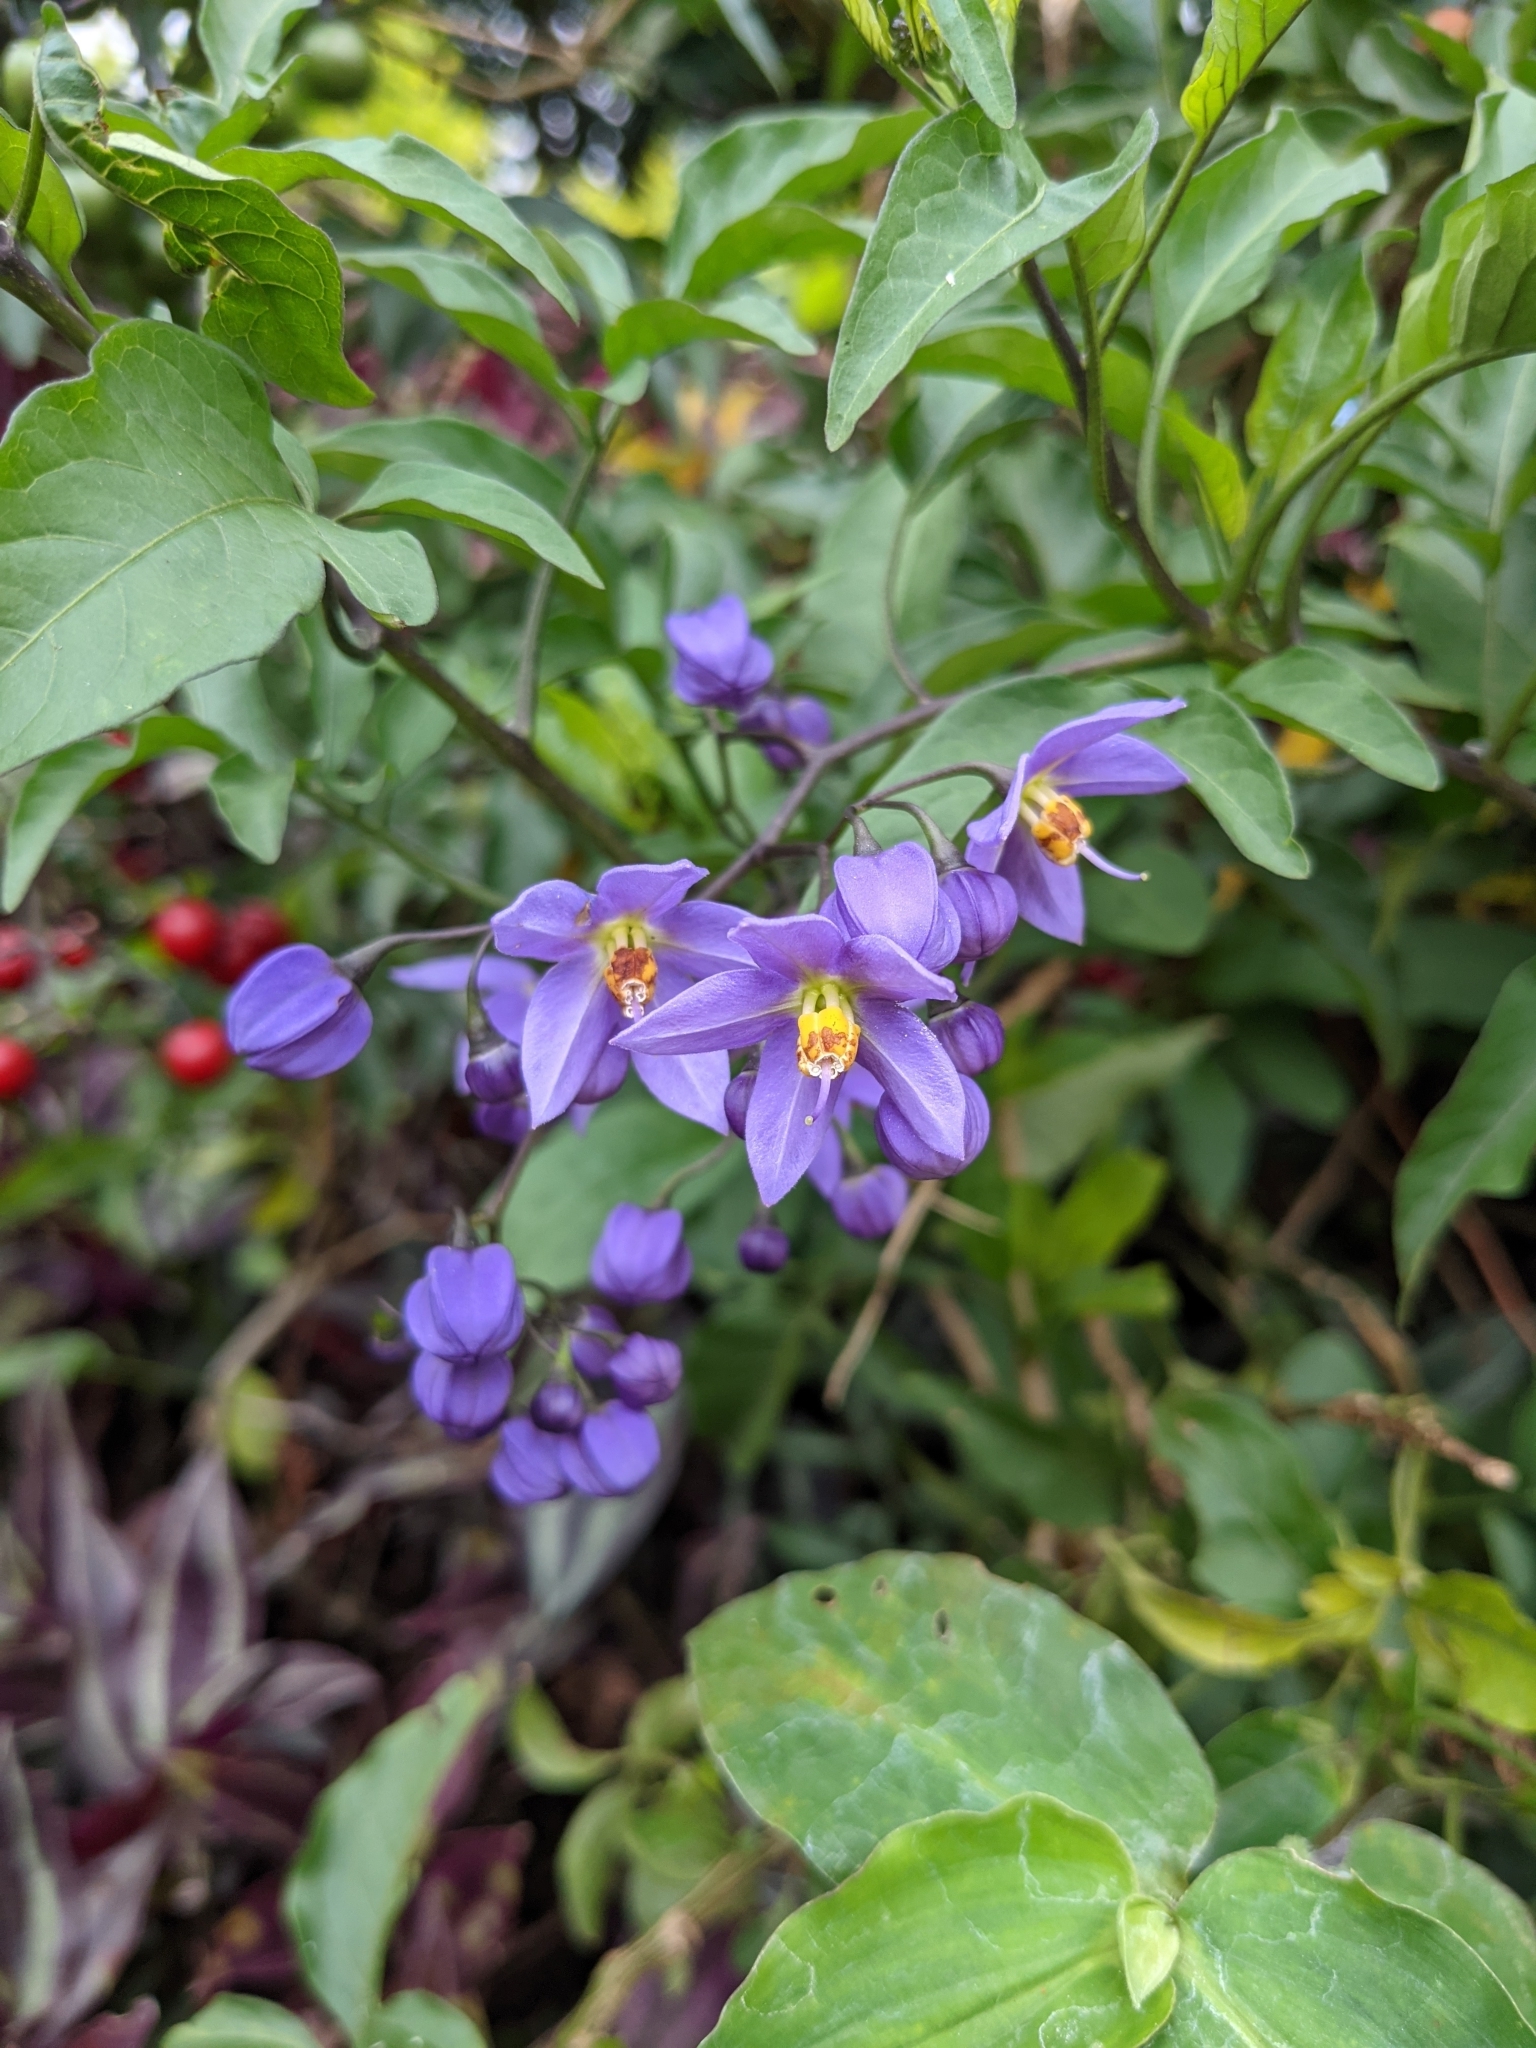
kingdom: Plantae
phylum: Tracheophyta
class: Magnoliopsida
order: Solanales
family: Solanaceae
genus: Solanum
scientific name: Solanum seaforthianum
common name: Brazilian nightshade
